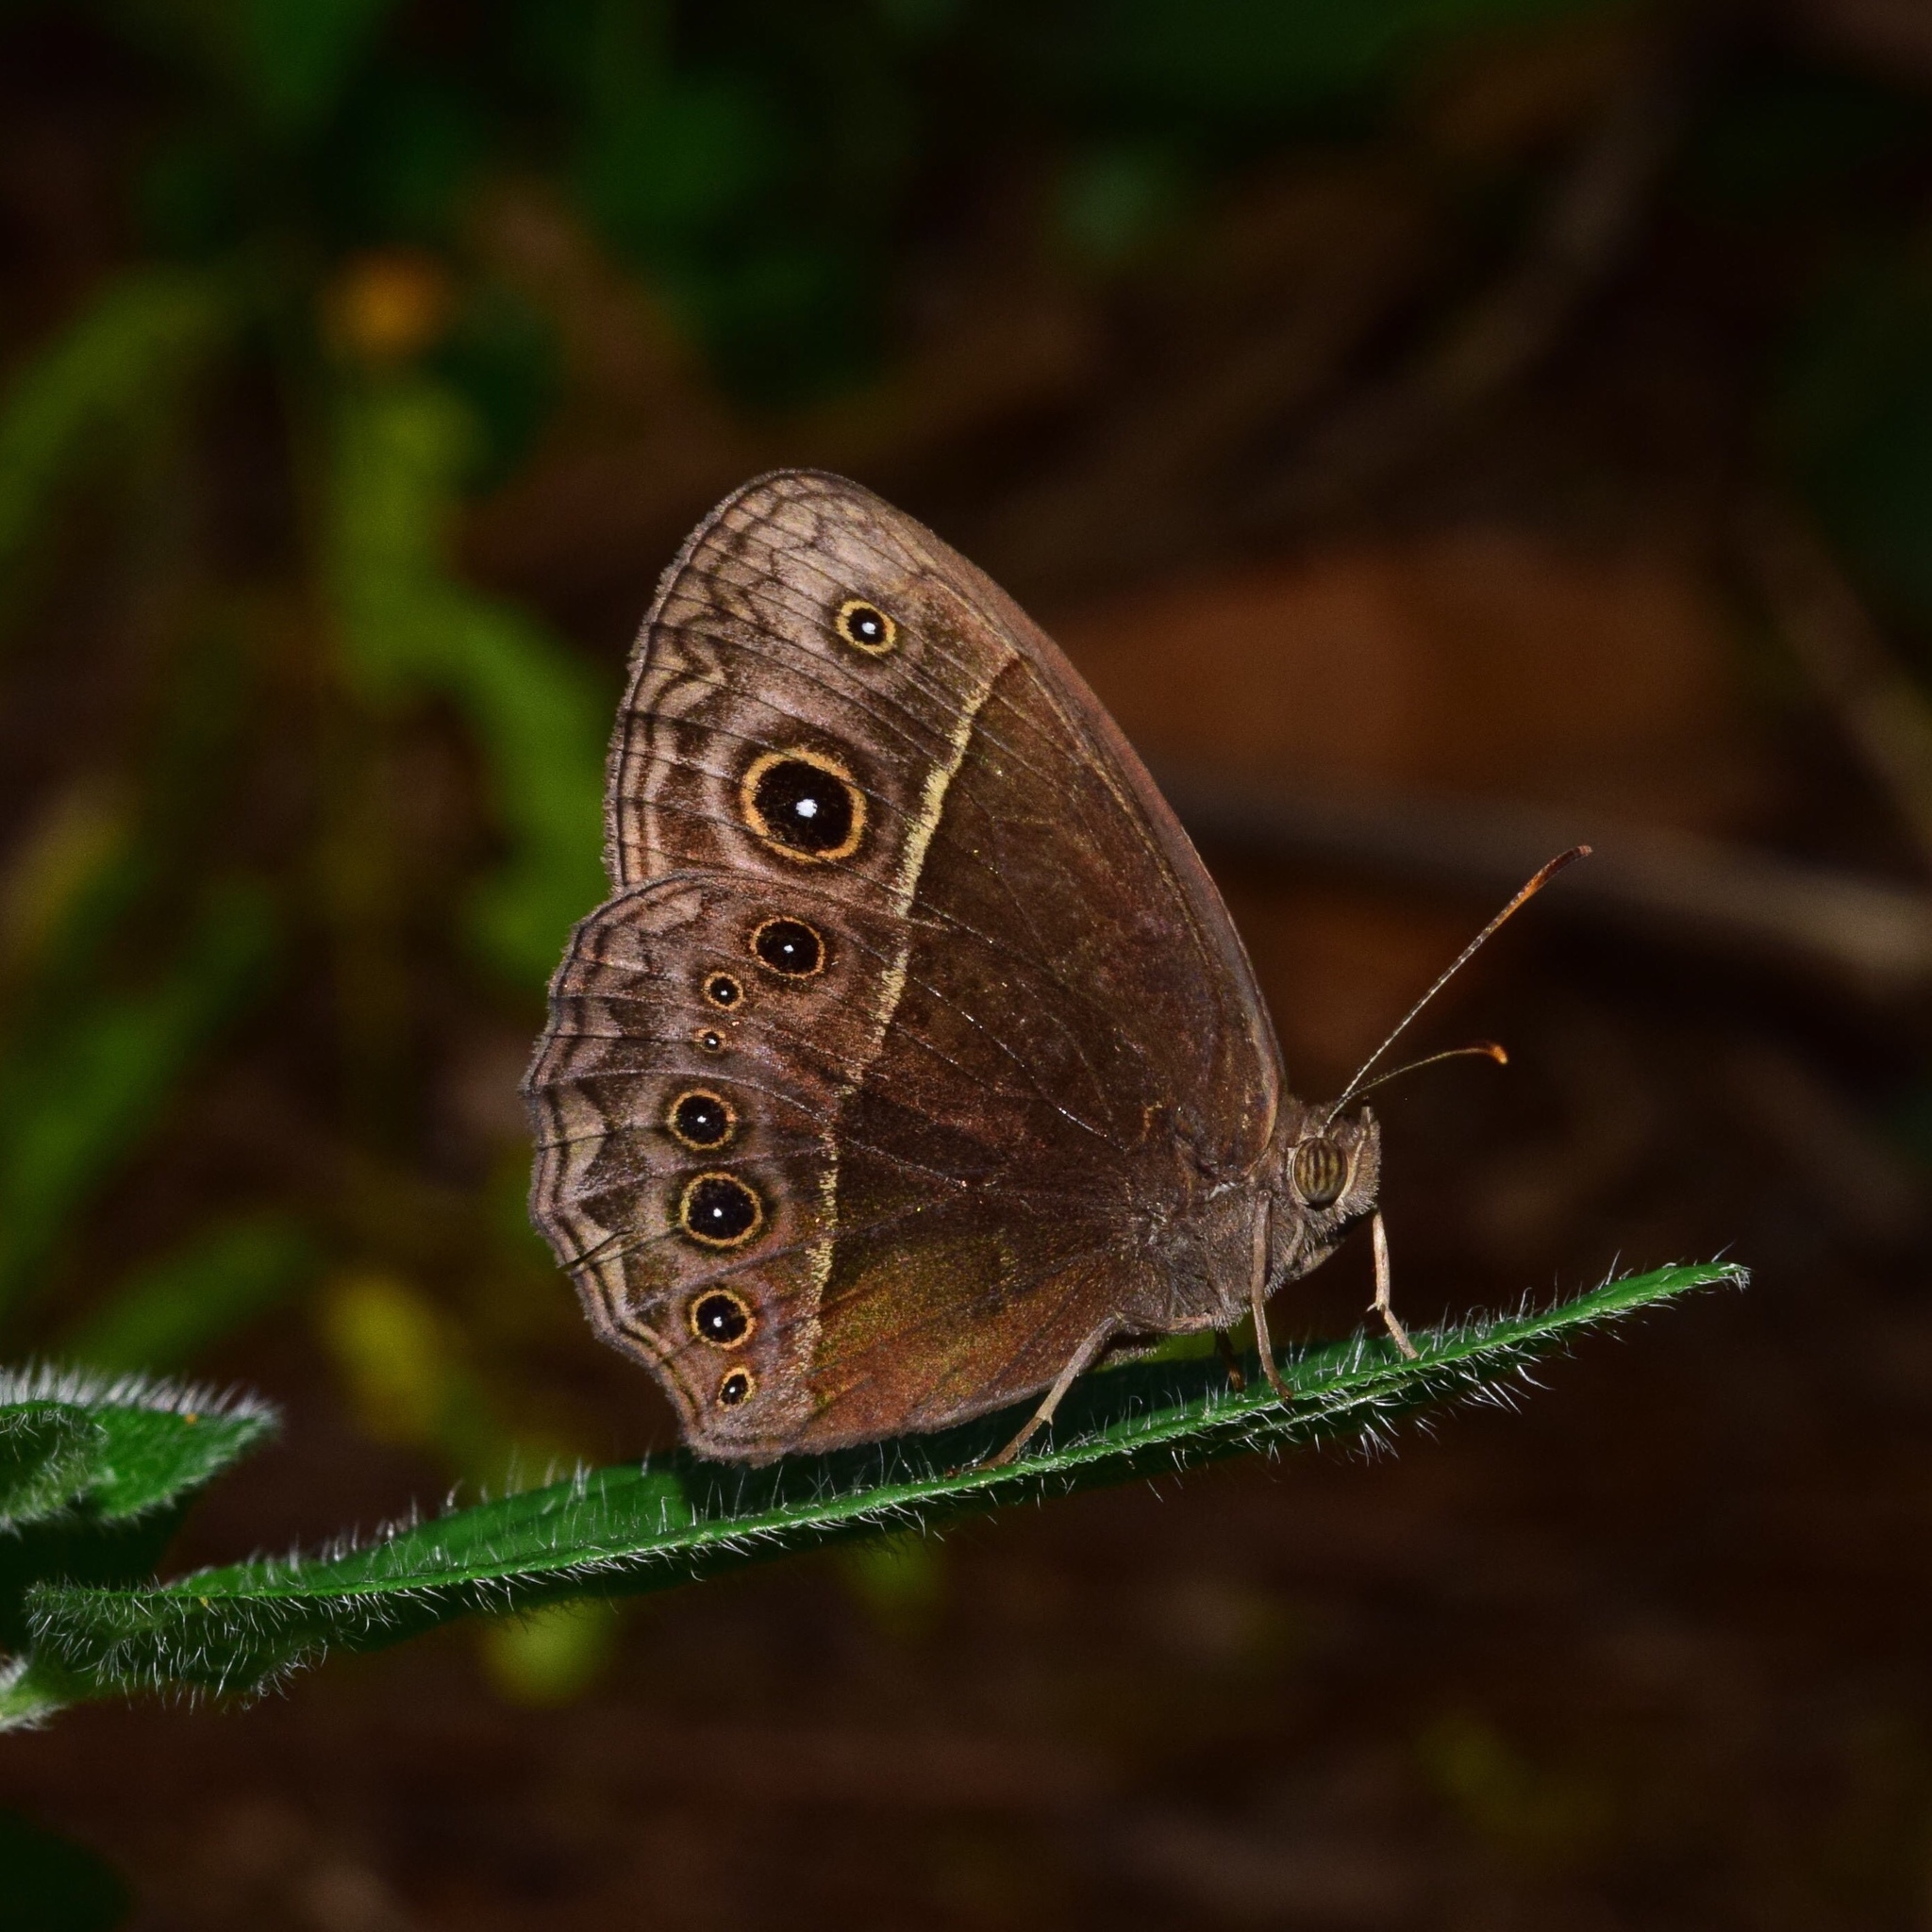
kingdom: Animalia
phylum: Arthropoda
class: Insecta
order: Lepidoptera
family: Nymphalidae
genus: Mycalesis
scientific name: Mycalesis rhacotis
